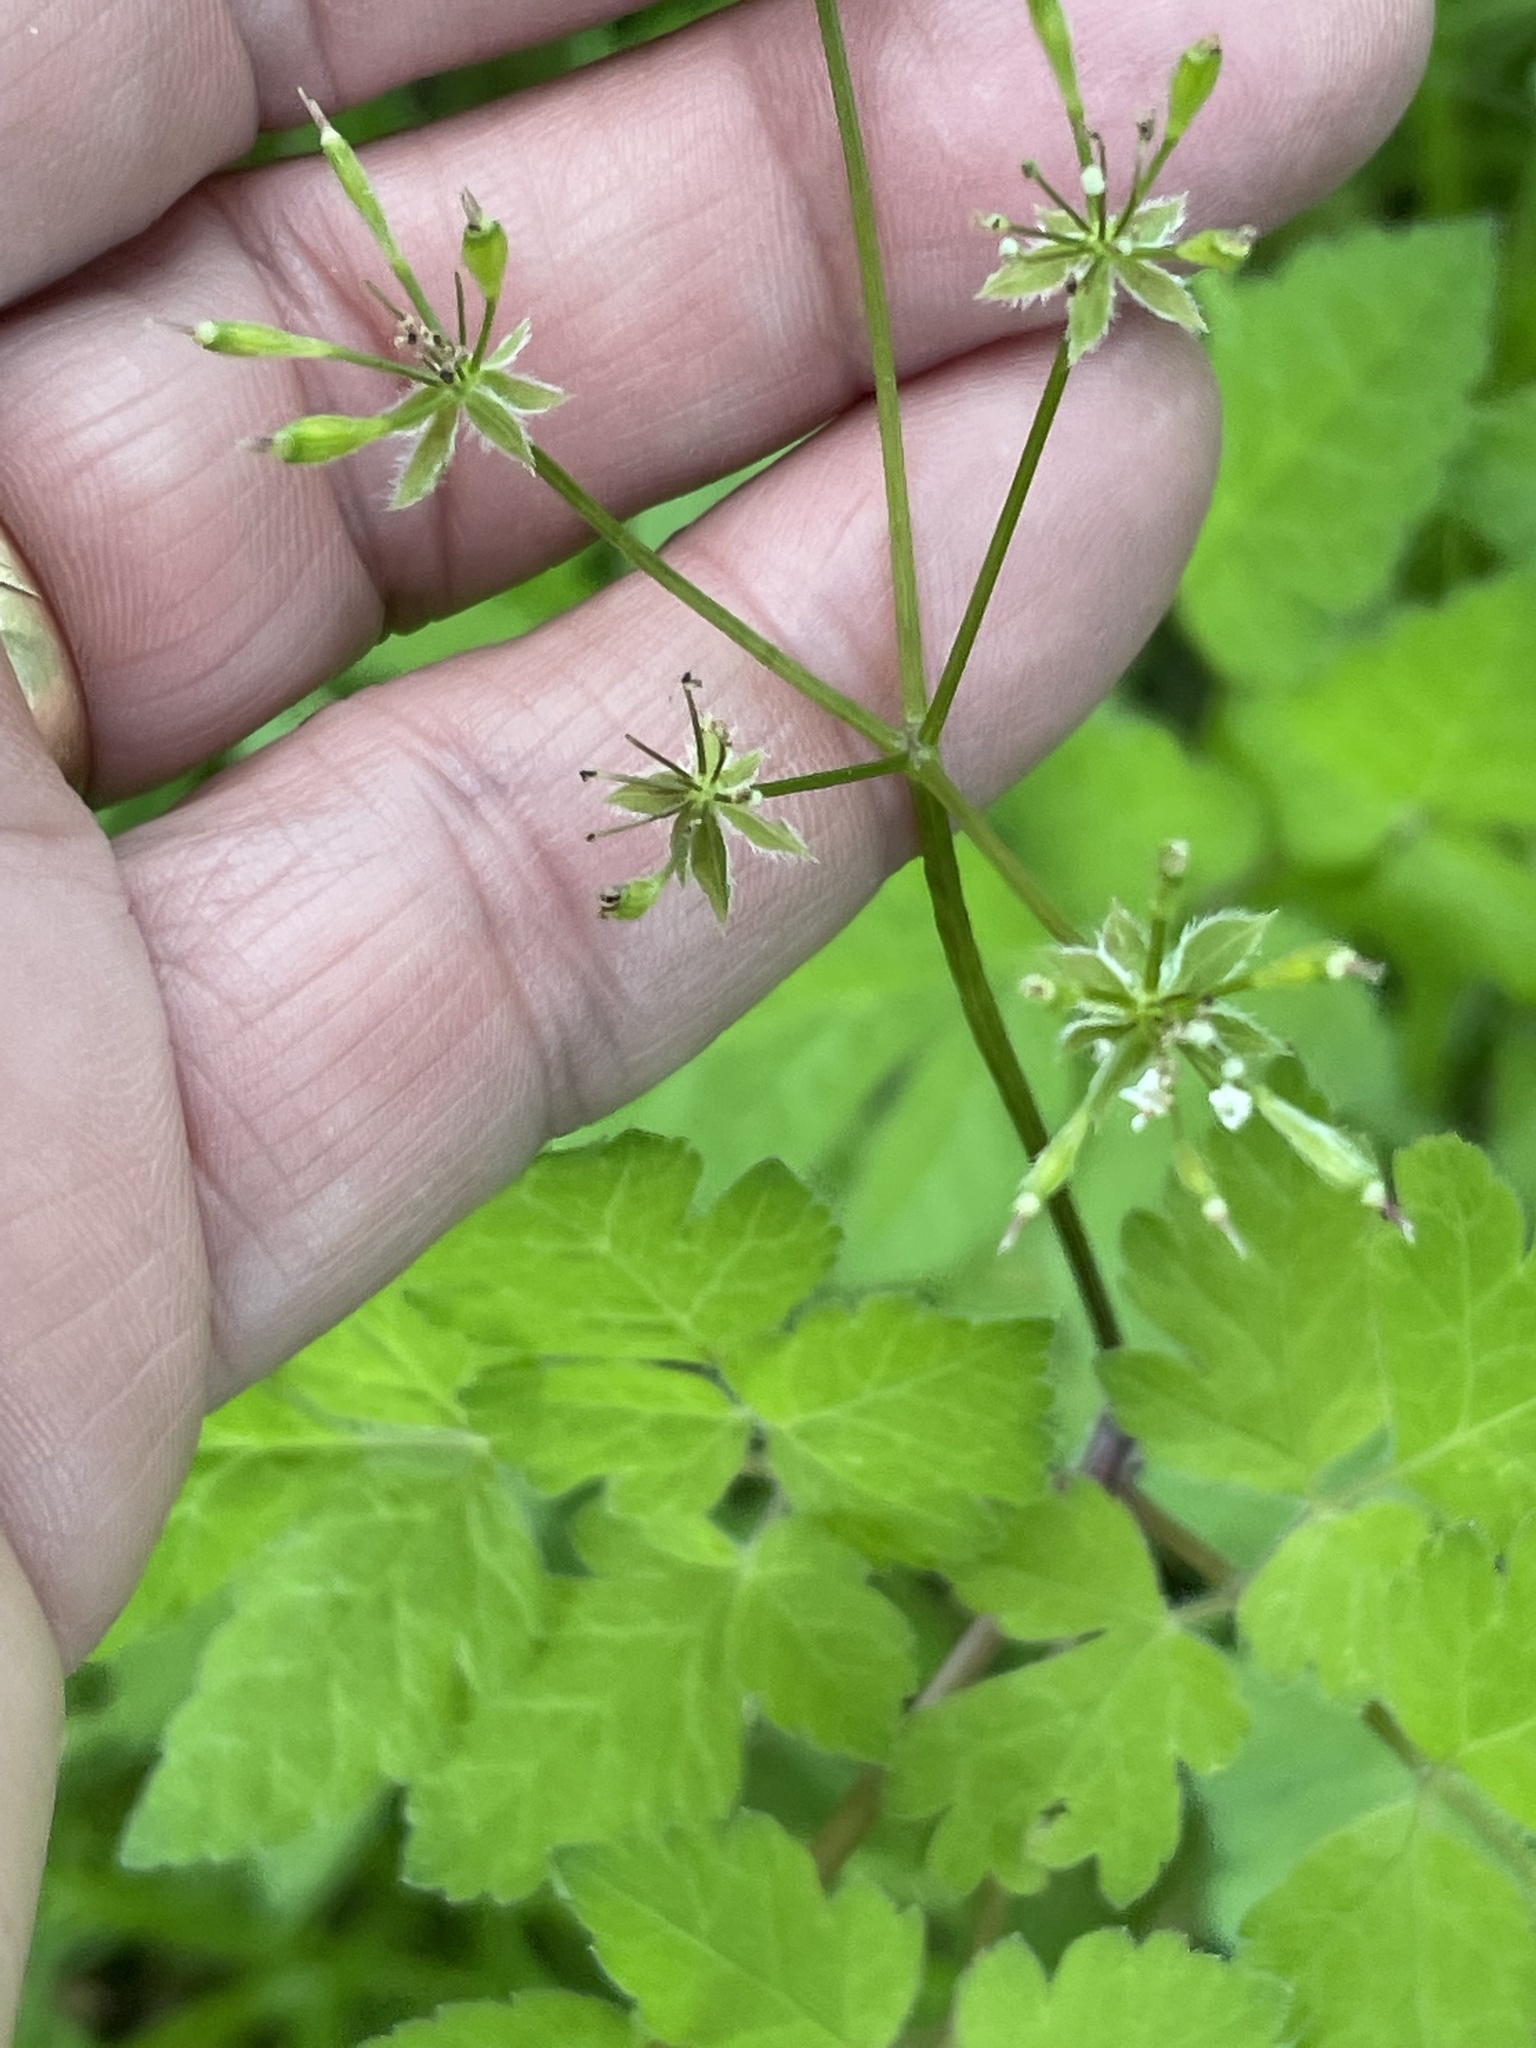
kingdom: Plantae
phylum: Tracheophyta
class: Magnoliopsida
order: Apiales
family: Apiaceae
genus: Osmorhiza
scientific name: Osmorhiza longistylis
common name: Smooth sweet cicely
